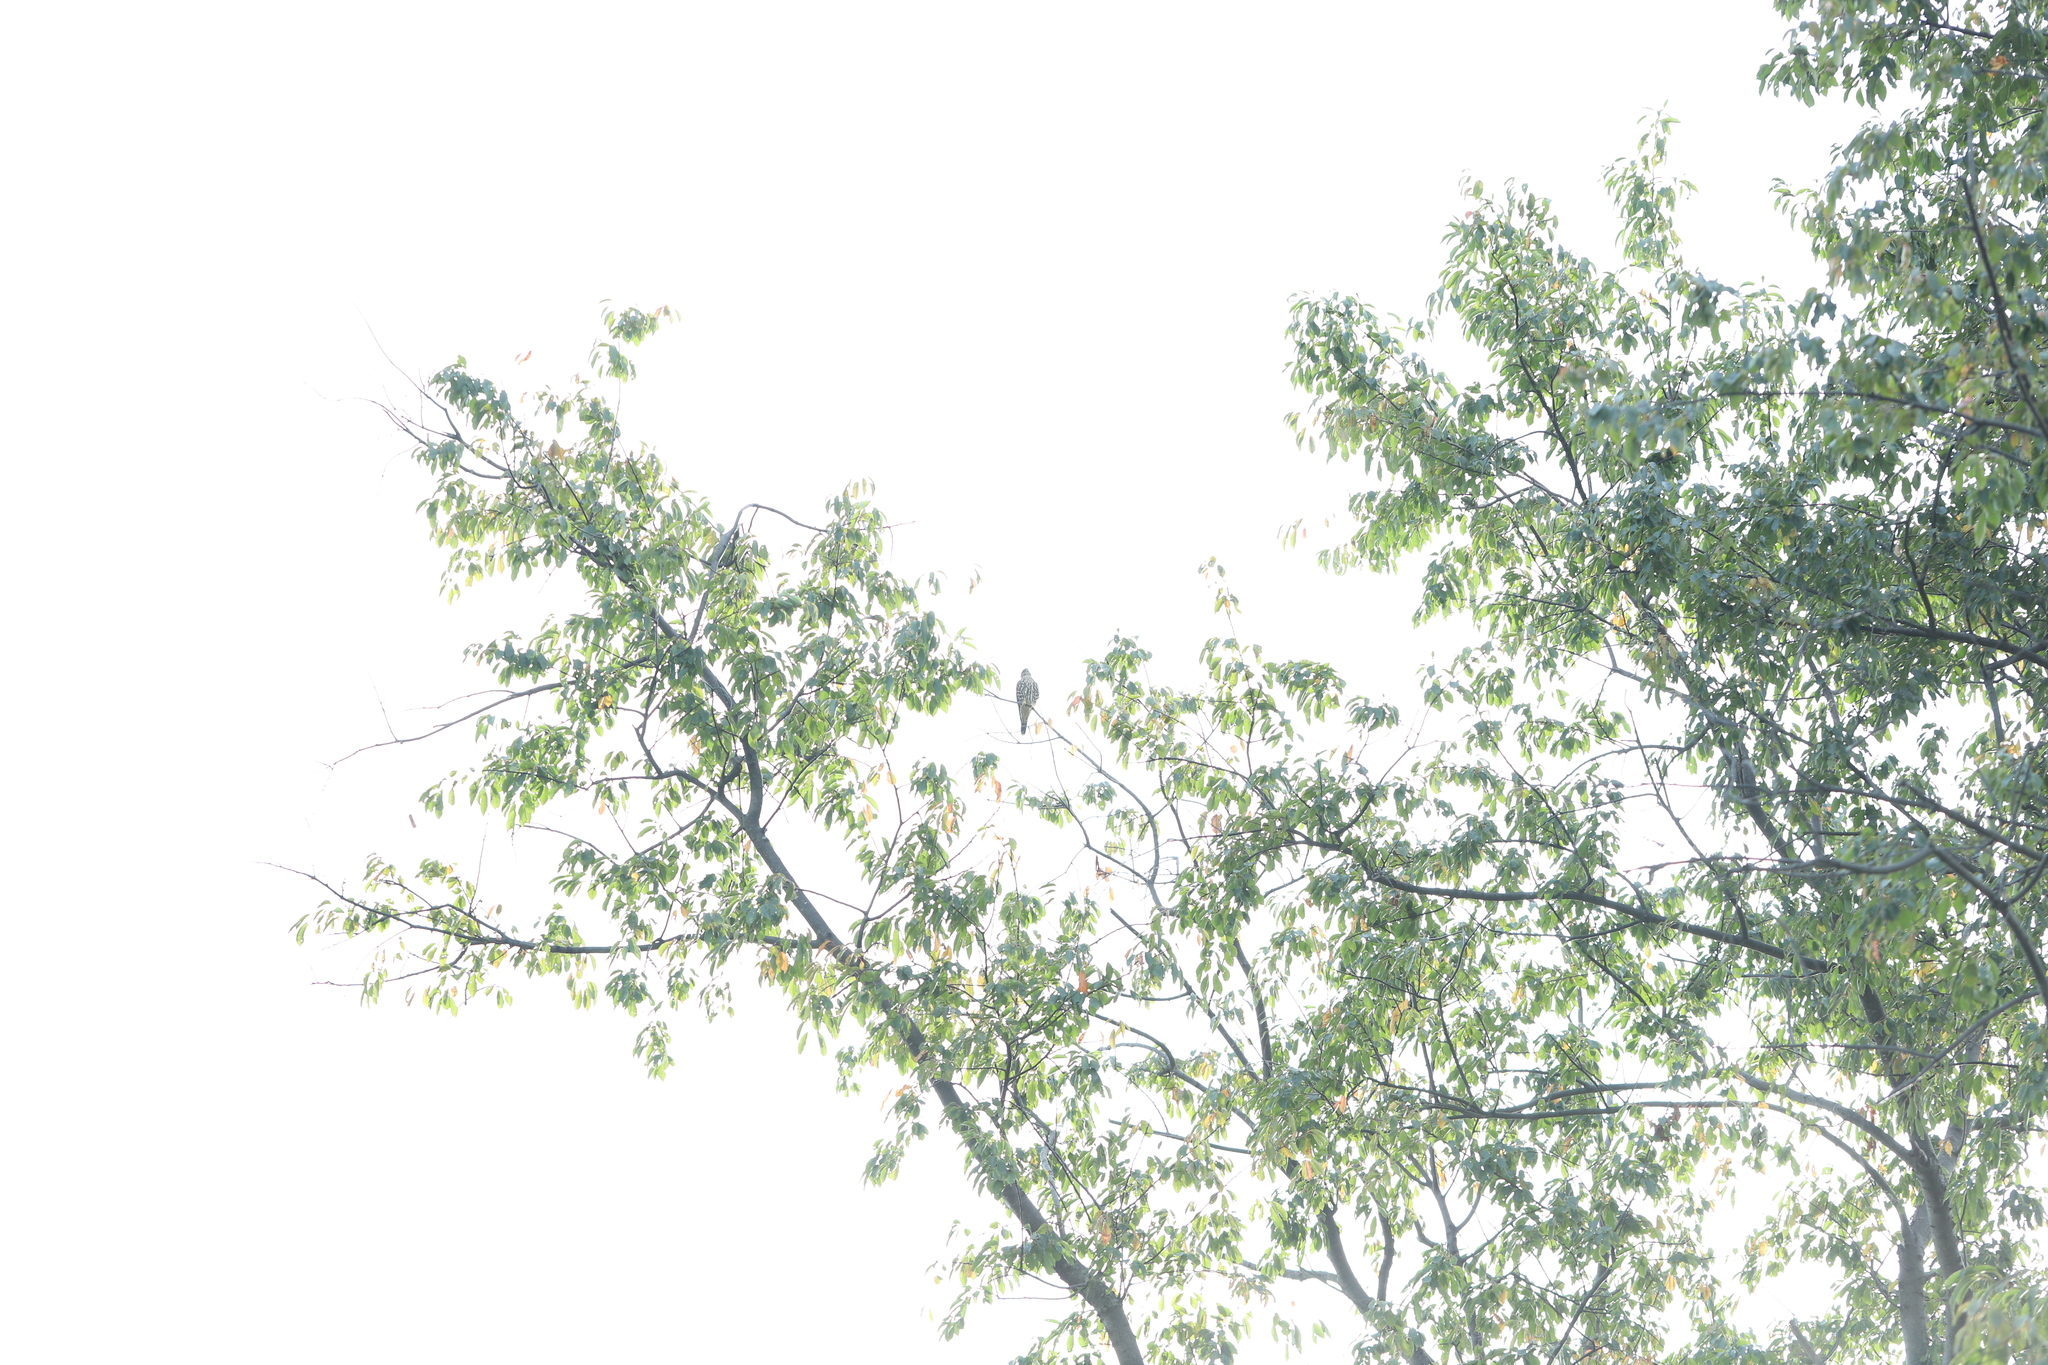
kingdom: Animalia
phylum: Chordata
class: Aves
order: Falconiformes
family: Falconidae
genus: Falco
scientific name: Falco columbarius
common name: Merlin
